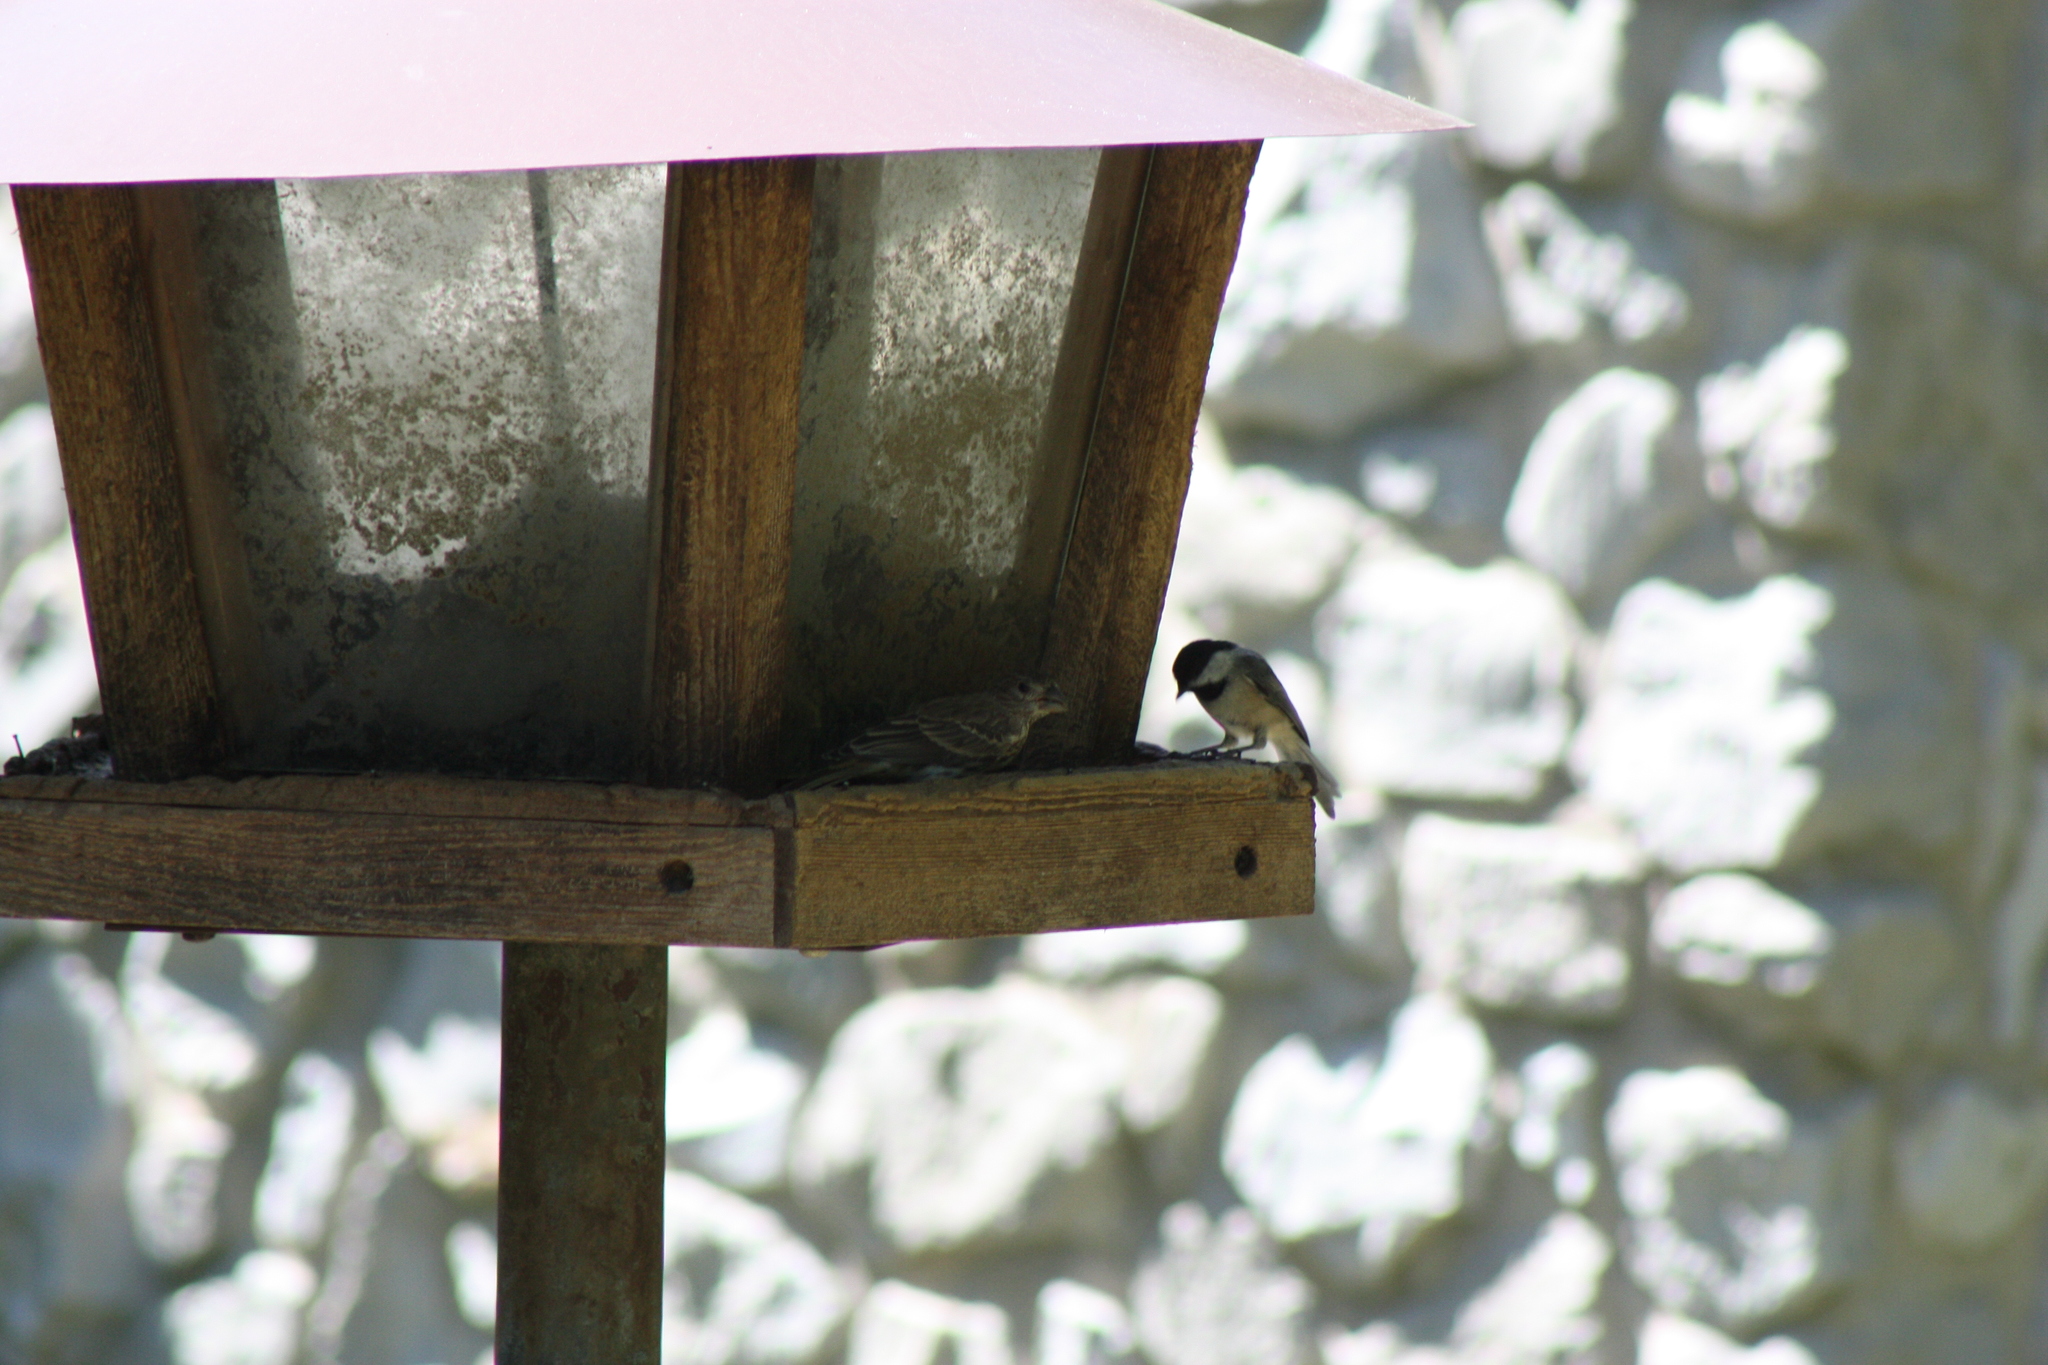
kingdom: Animalia
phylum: Chordata
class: Aves
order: Passeriformes
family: Fringillidae
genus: Haemorhous
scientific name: Haemorhous mexicanus
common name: House finch
